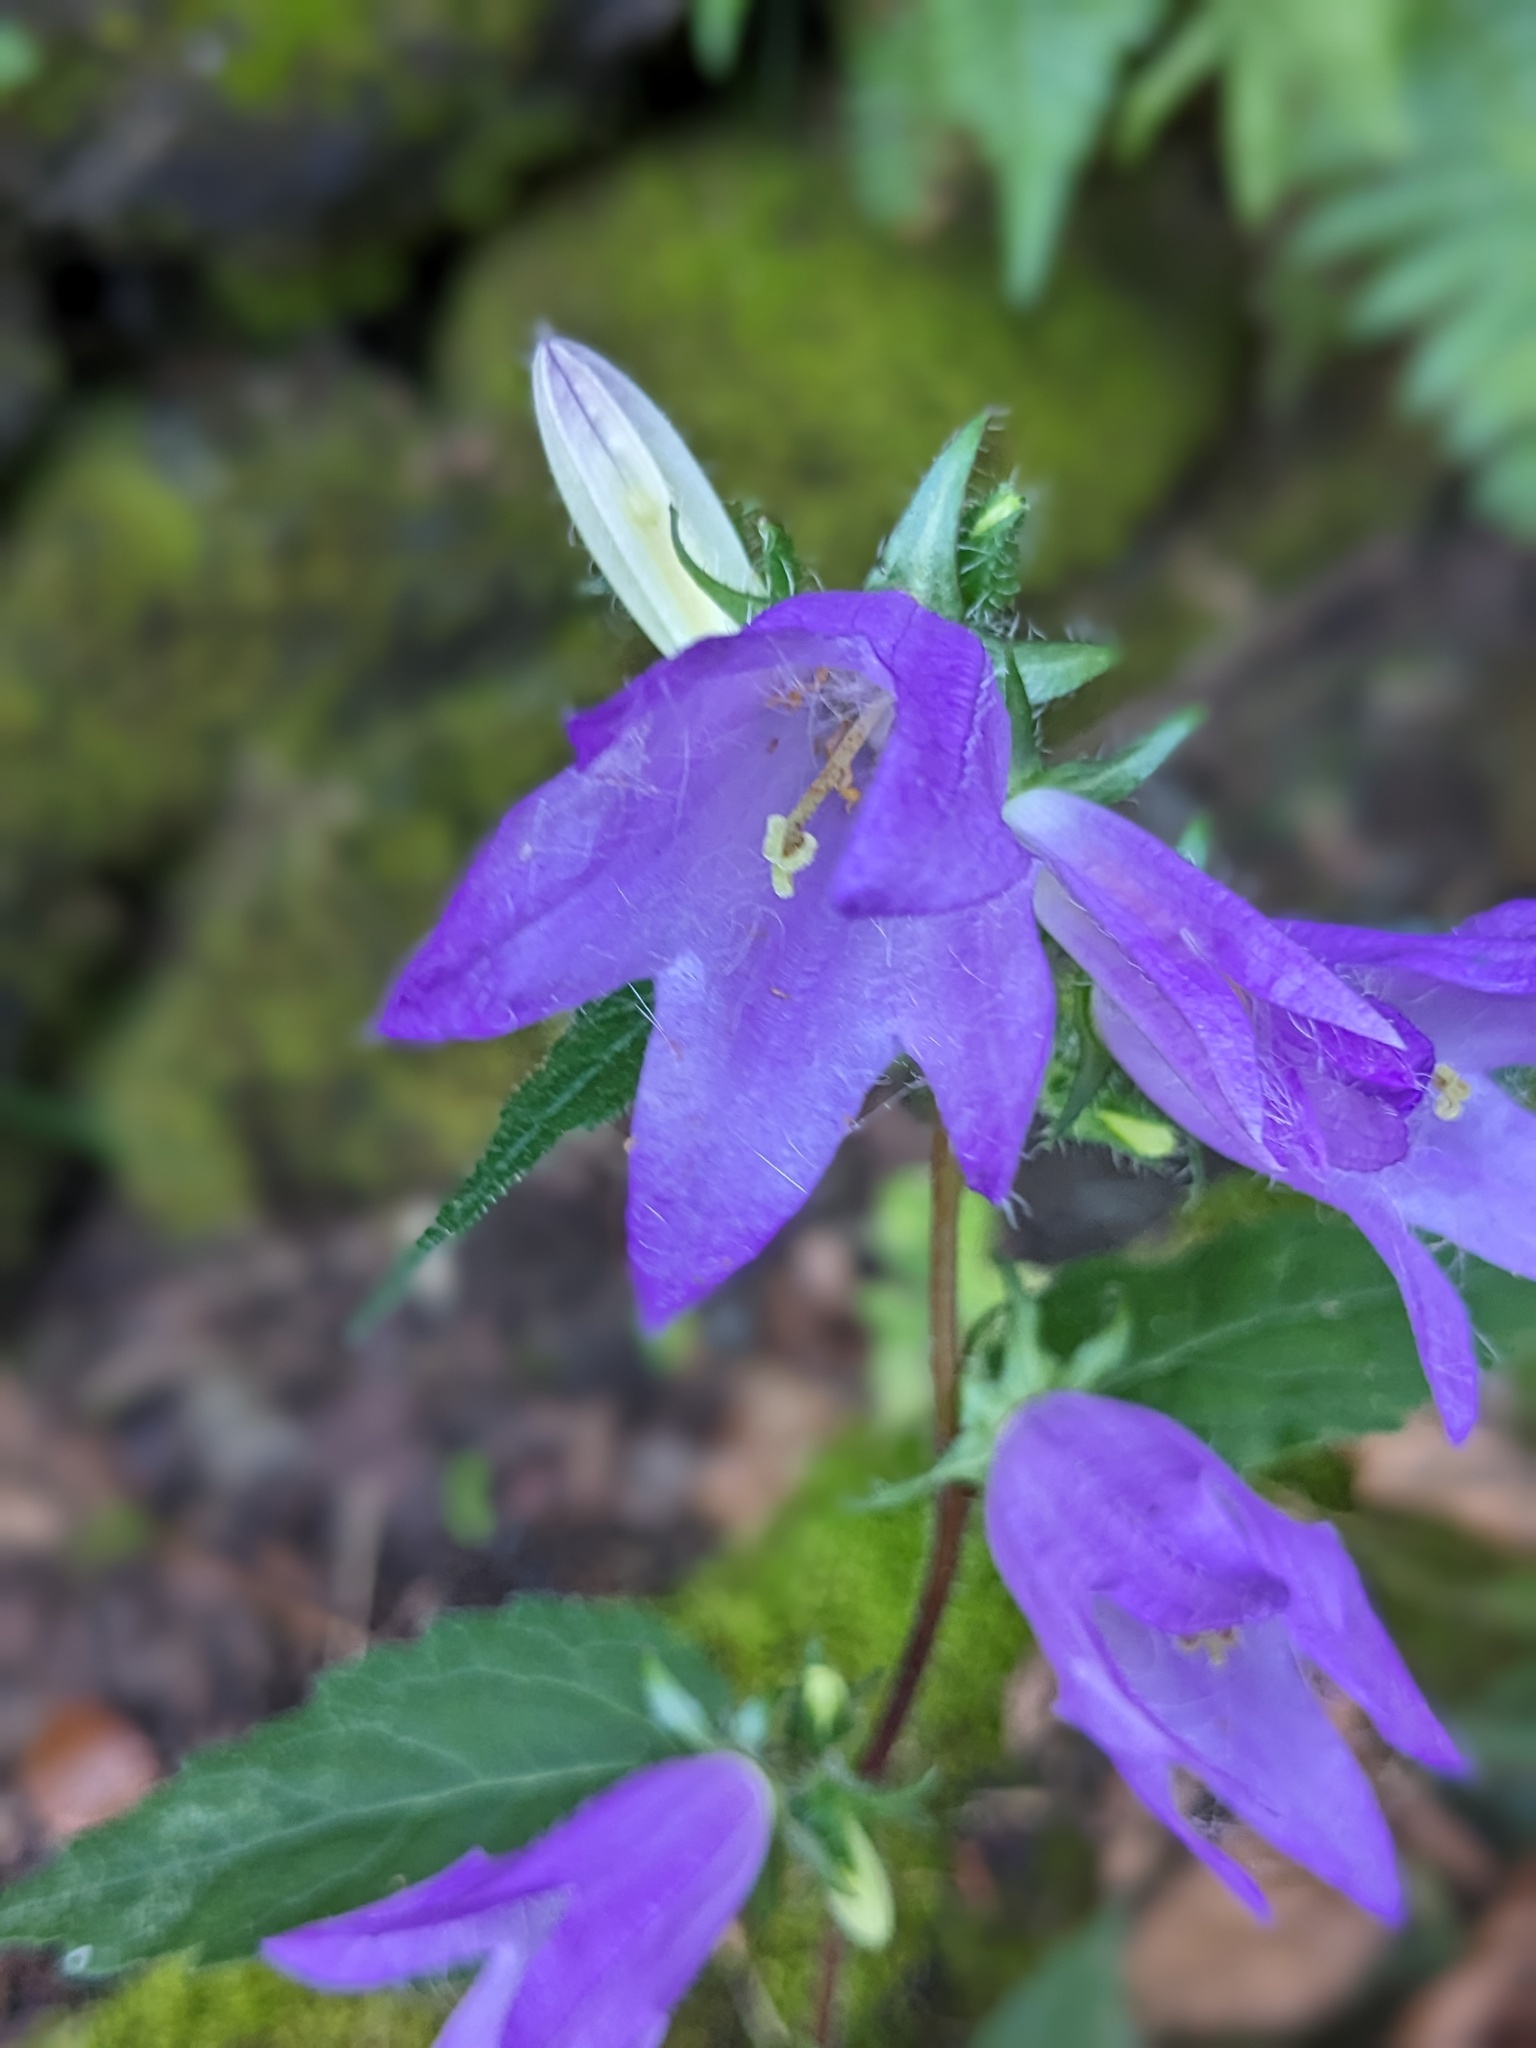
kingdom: Plantae
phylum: Tracheophyta
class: Magnoliopsida
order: Asterales
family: Campanulaceae
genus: Campanula
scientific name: Campanula trachelium
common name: Nettle-leaved bellflower
